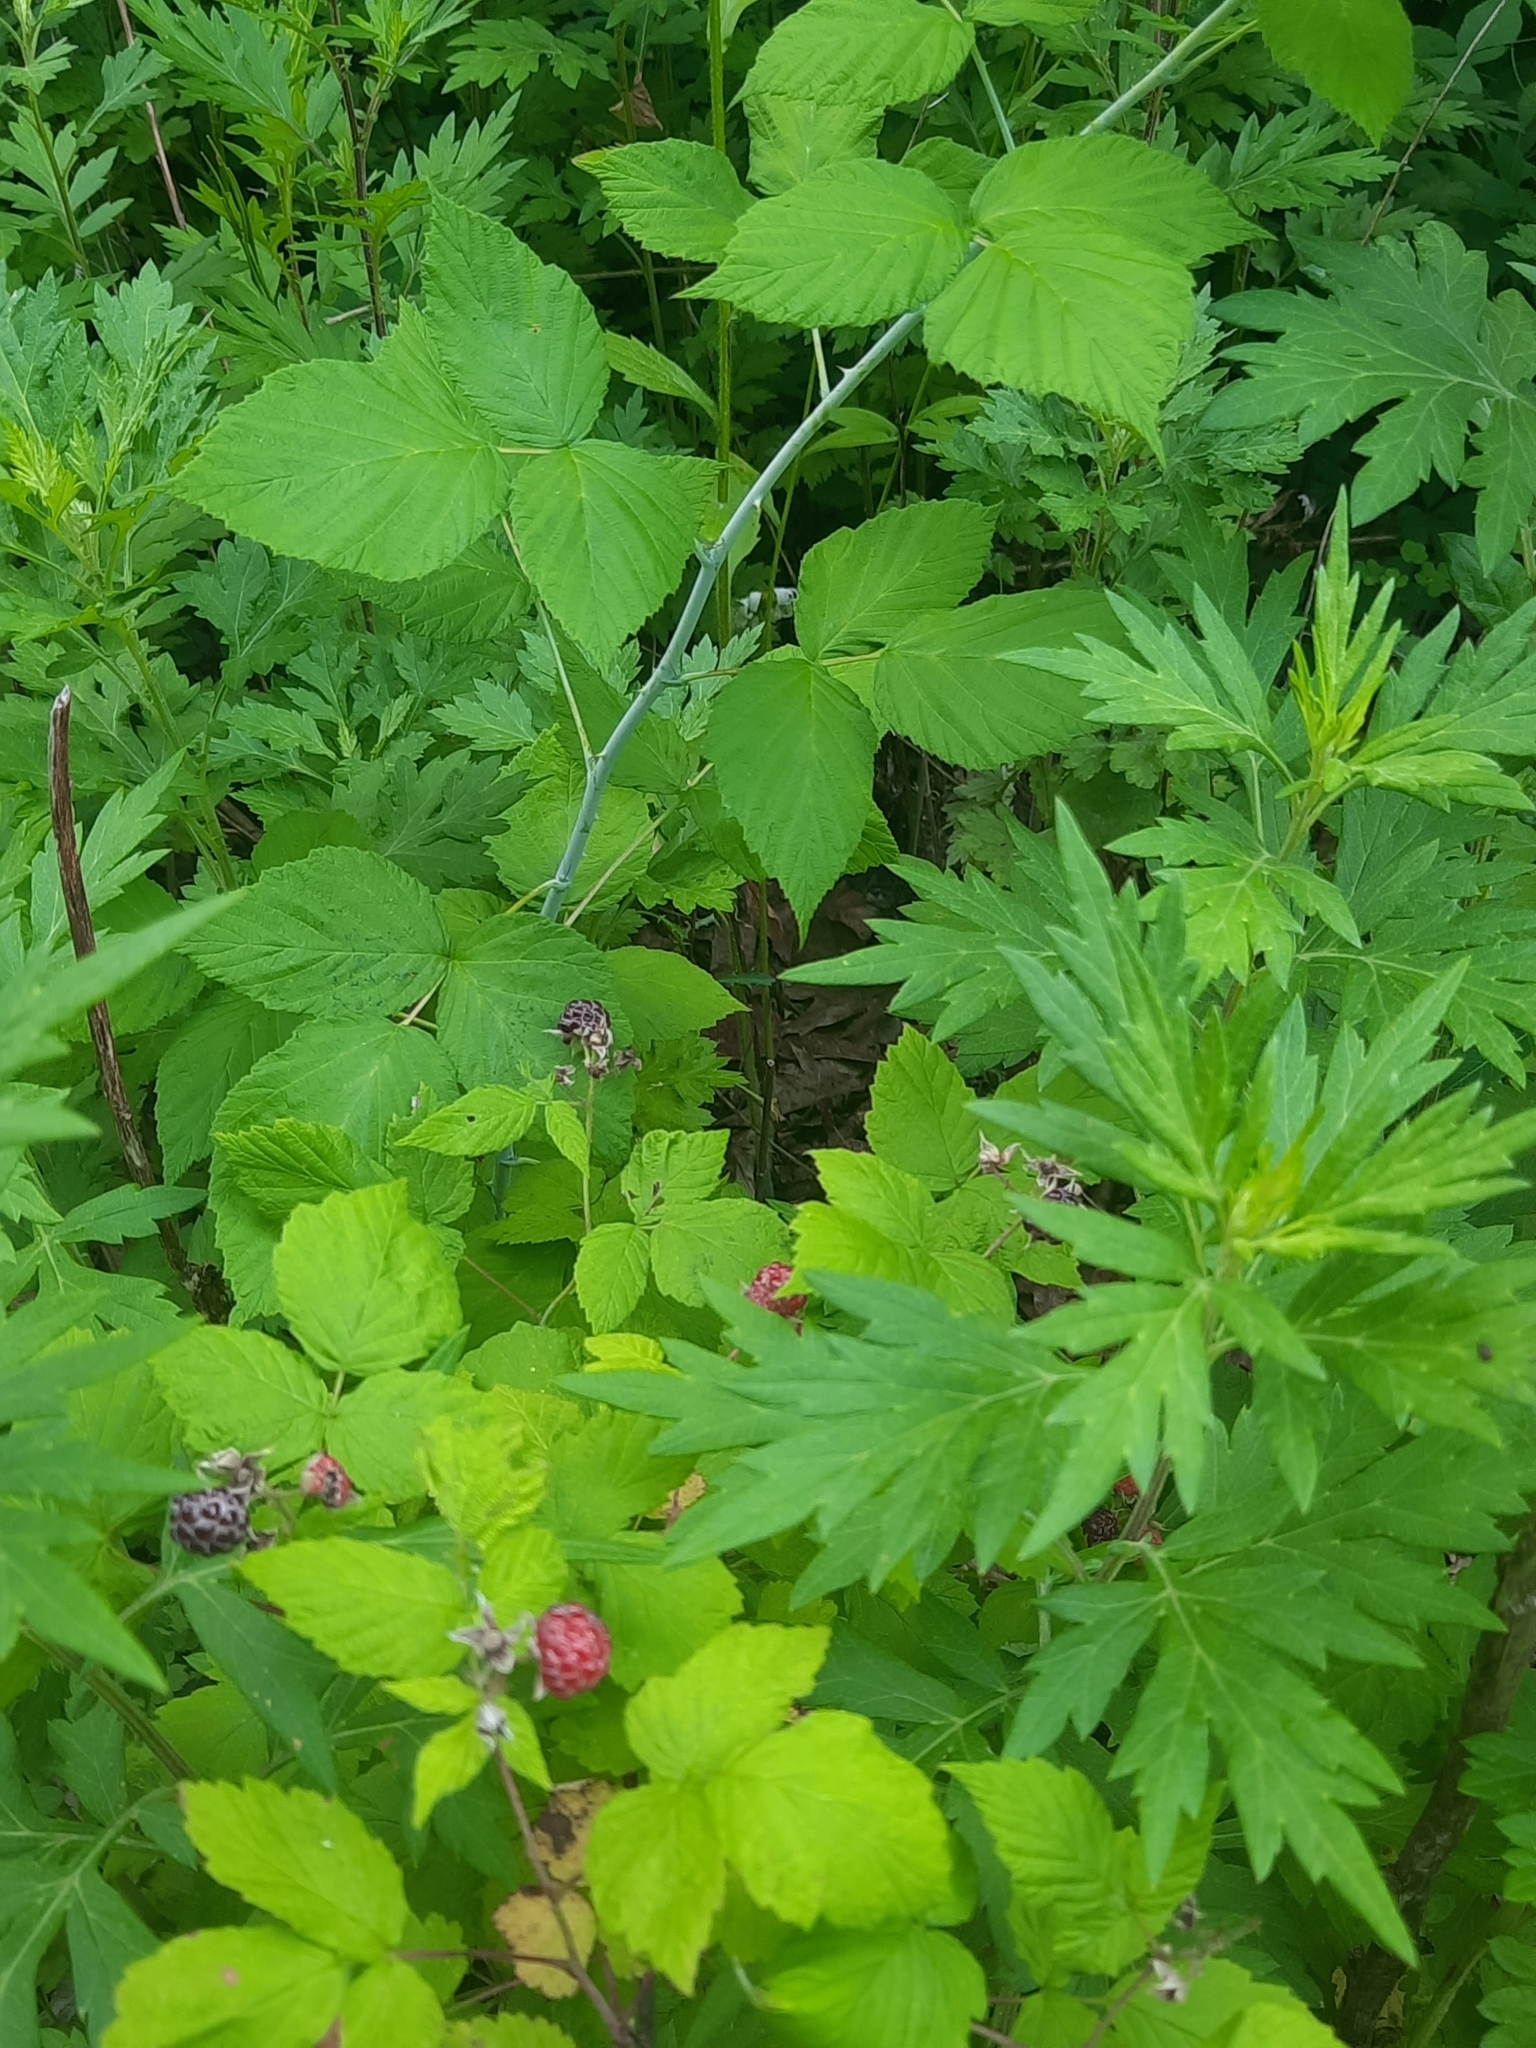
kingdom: Plantae
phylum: Tracheophyta
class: Magnoliopsida
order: Rosales
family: Rosaceae
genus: Rubus
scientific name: Rubus occidentalis
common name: Black raspberry
